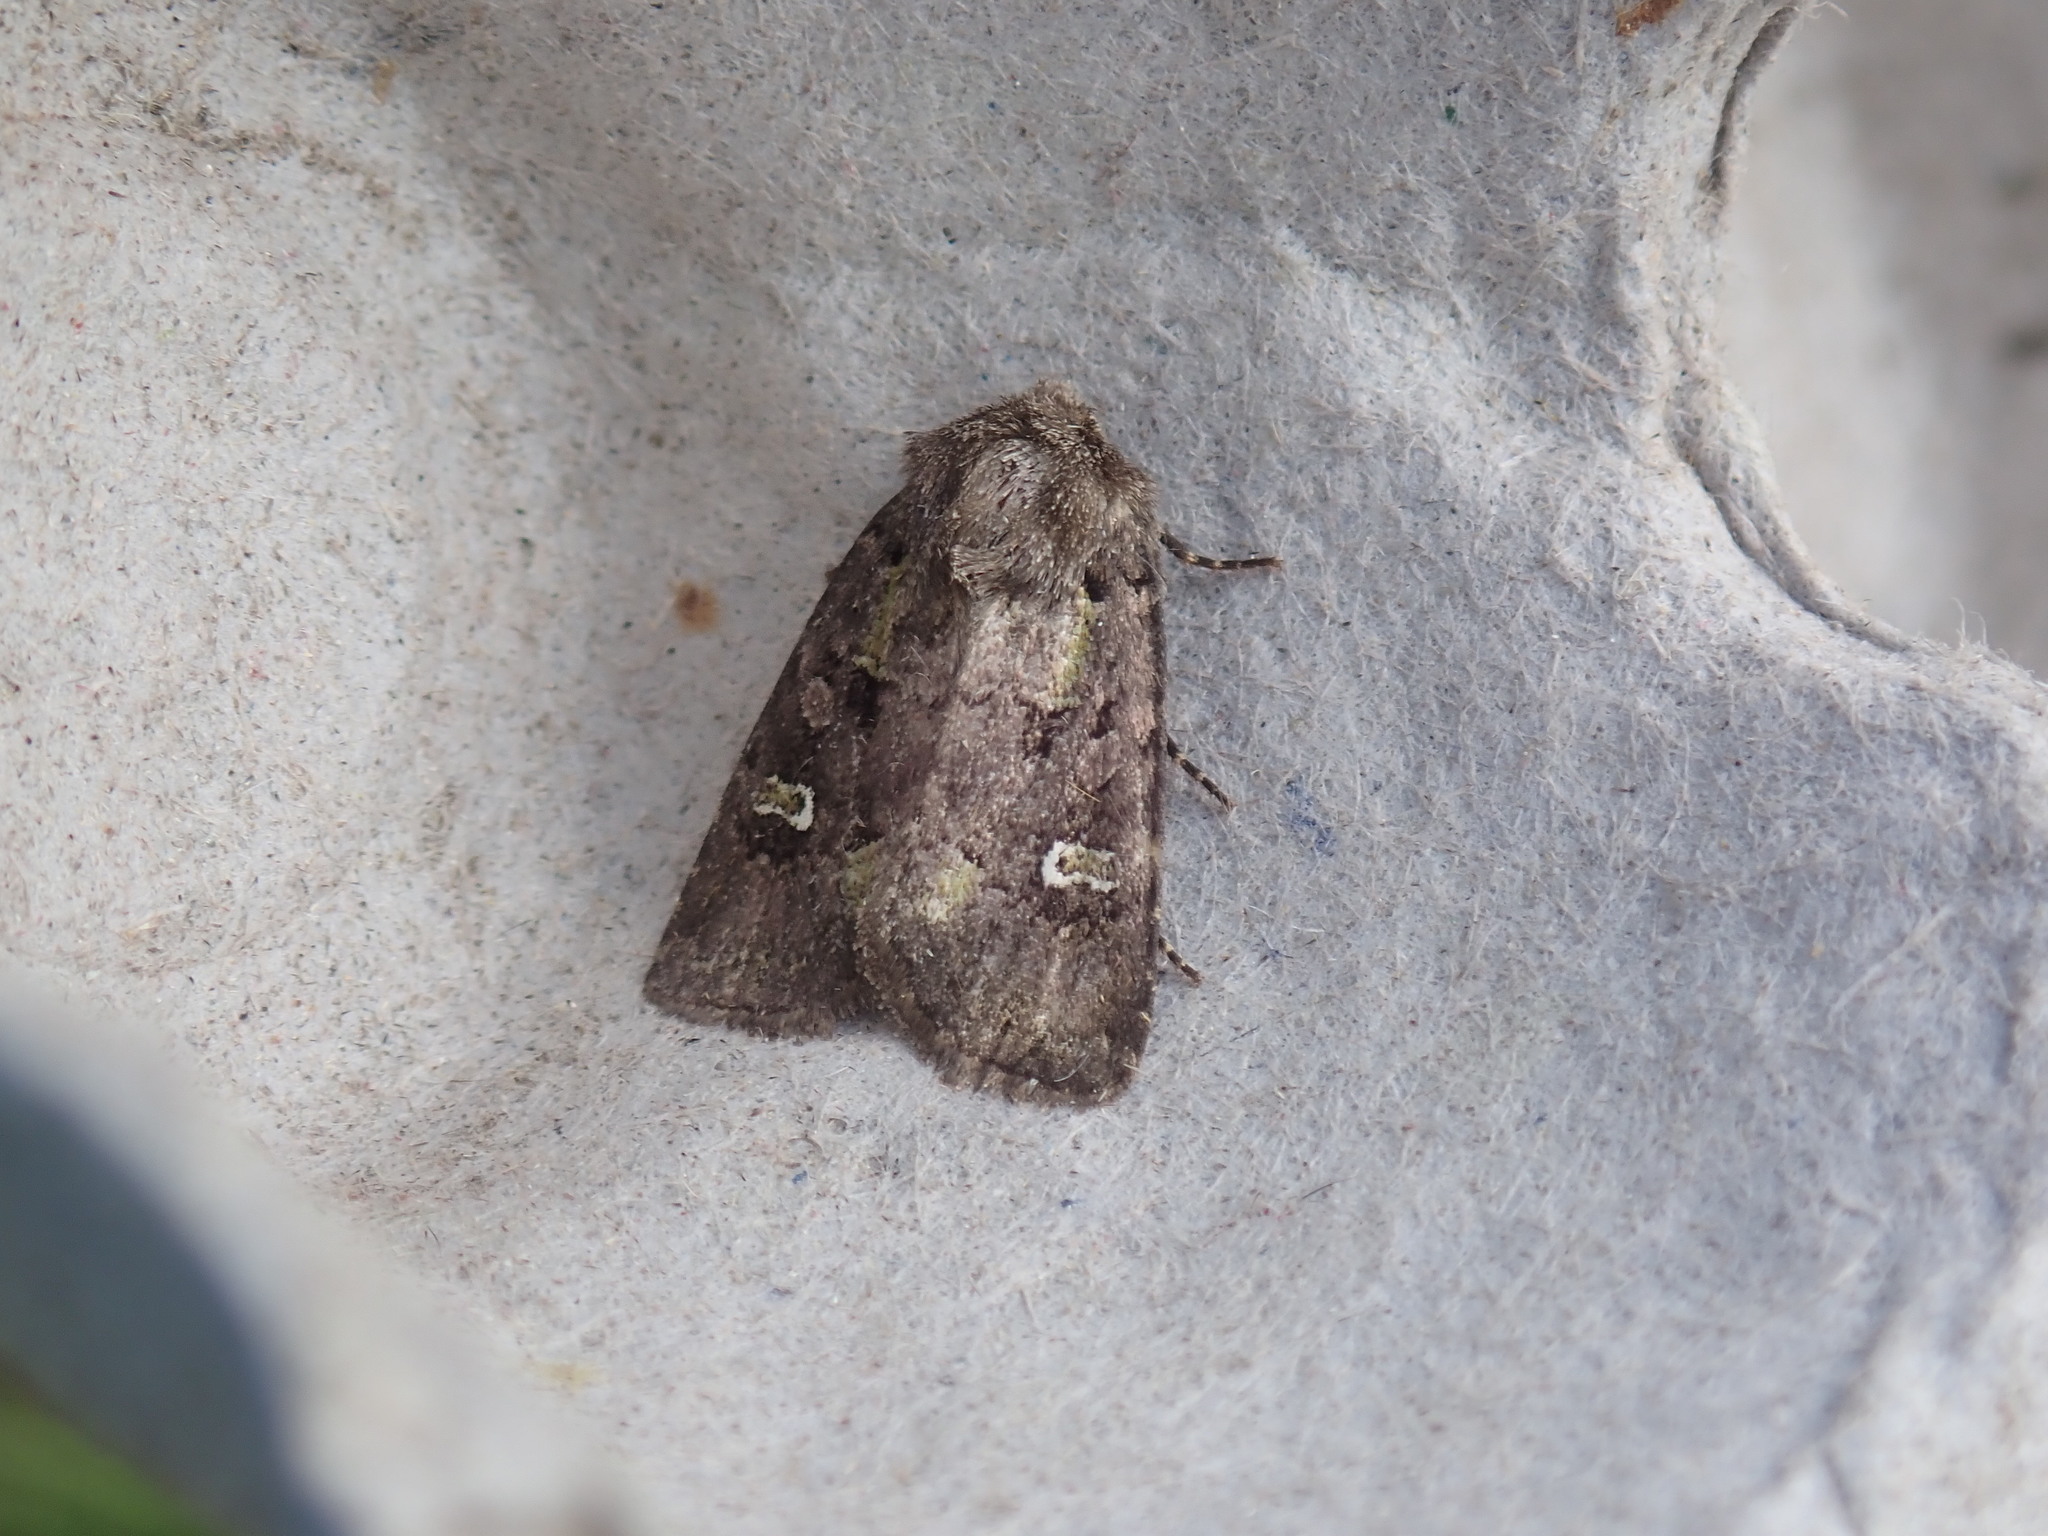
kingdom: Animalia
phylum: Arthropoda
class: Insecta
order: Lepidoptera
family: Noctuidae
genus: Lacinipolia
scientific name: Lacinipolia renigera
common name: Kidney-spotted minor
